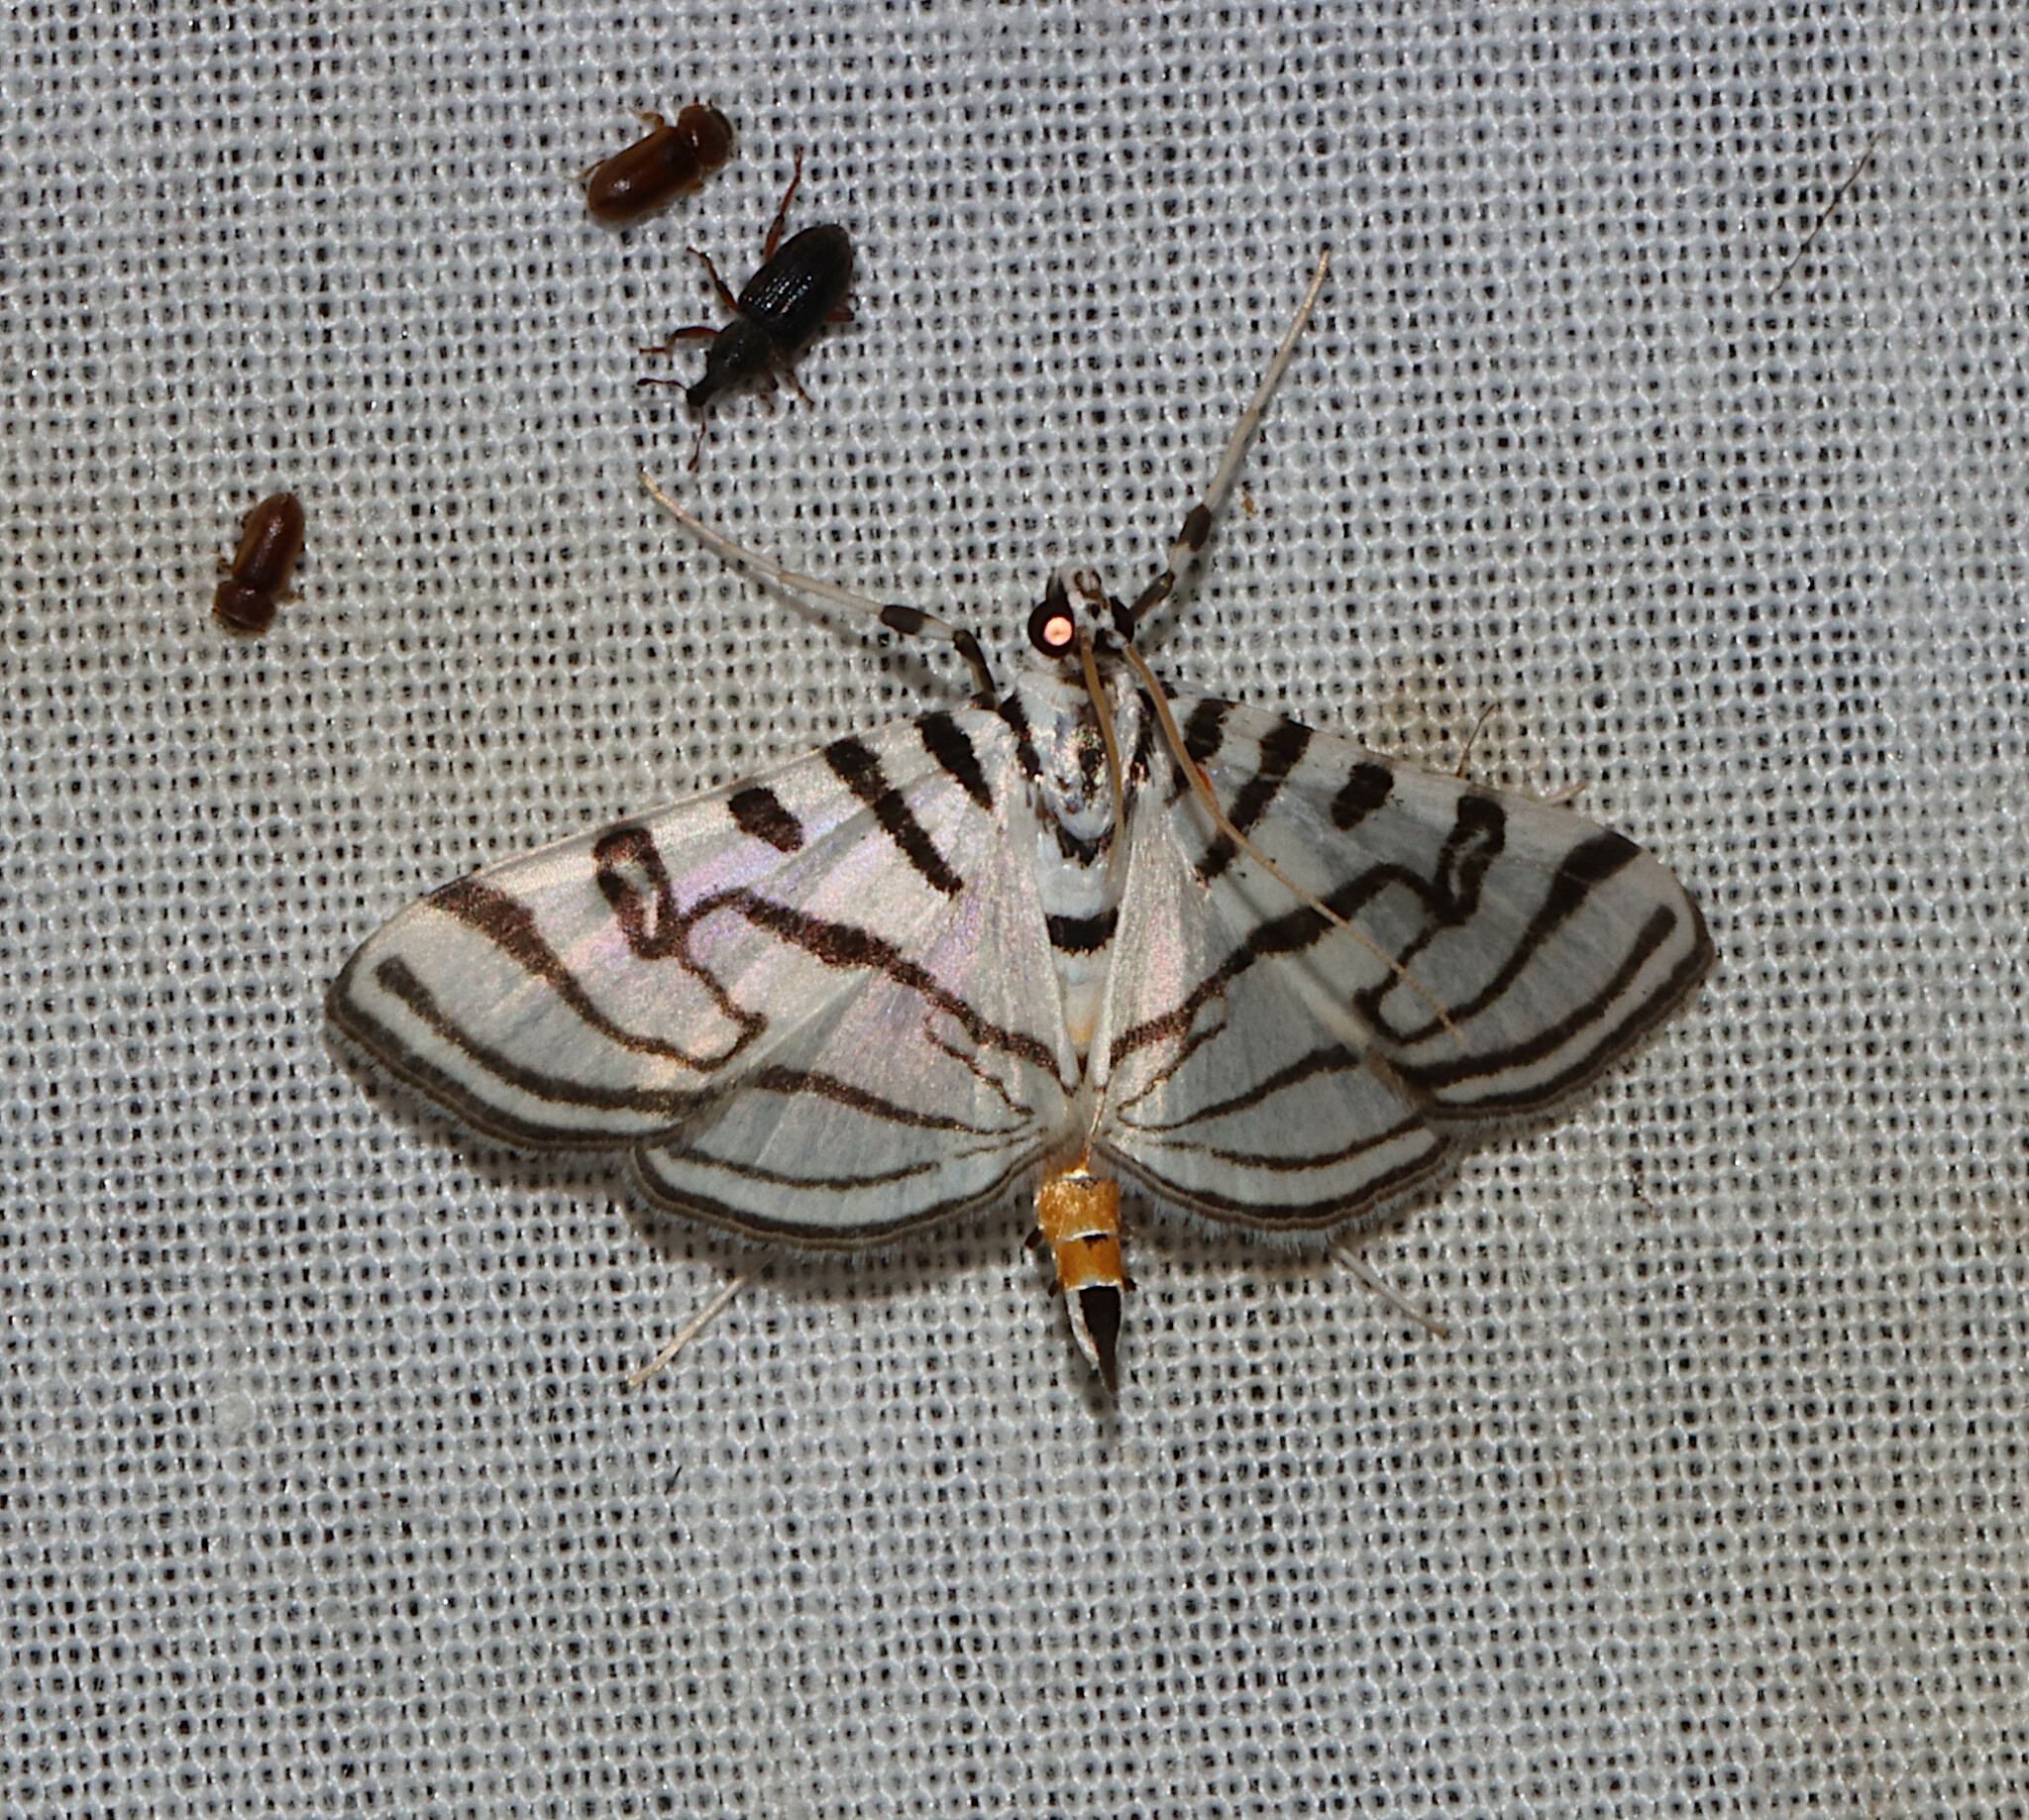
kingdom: Animalia
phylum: Arthropoda
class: Insecta
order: Lepidoptera
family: Crambidae
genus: Conchylodes
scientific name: Conchylodes ovulalis
